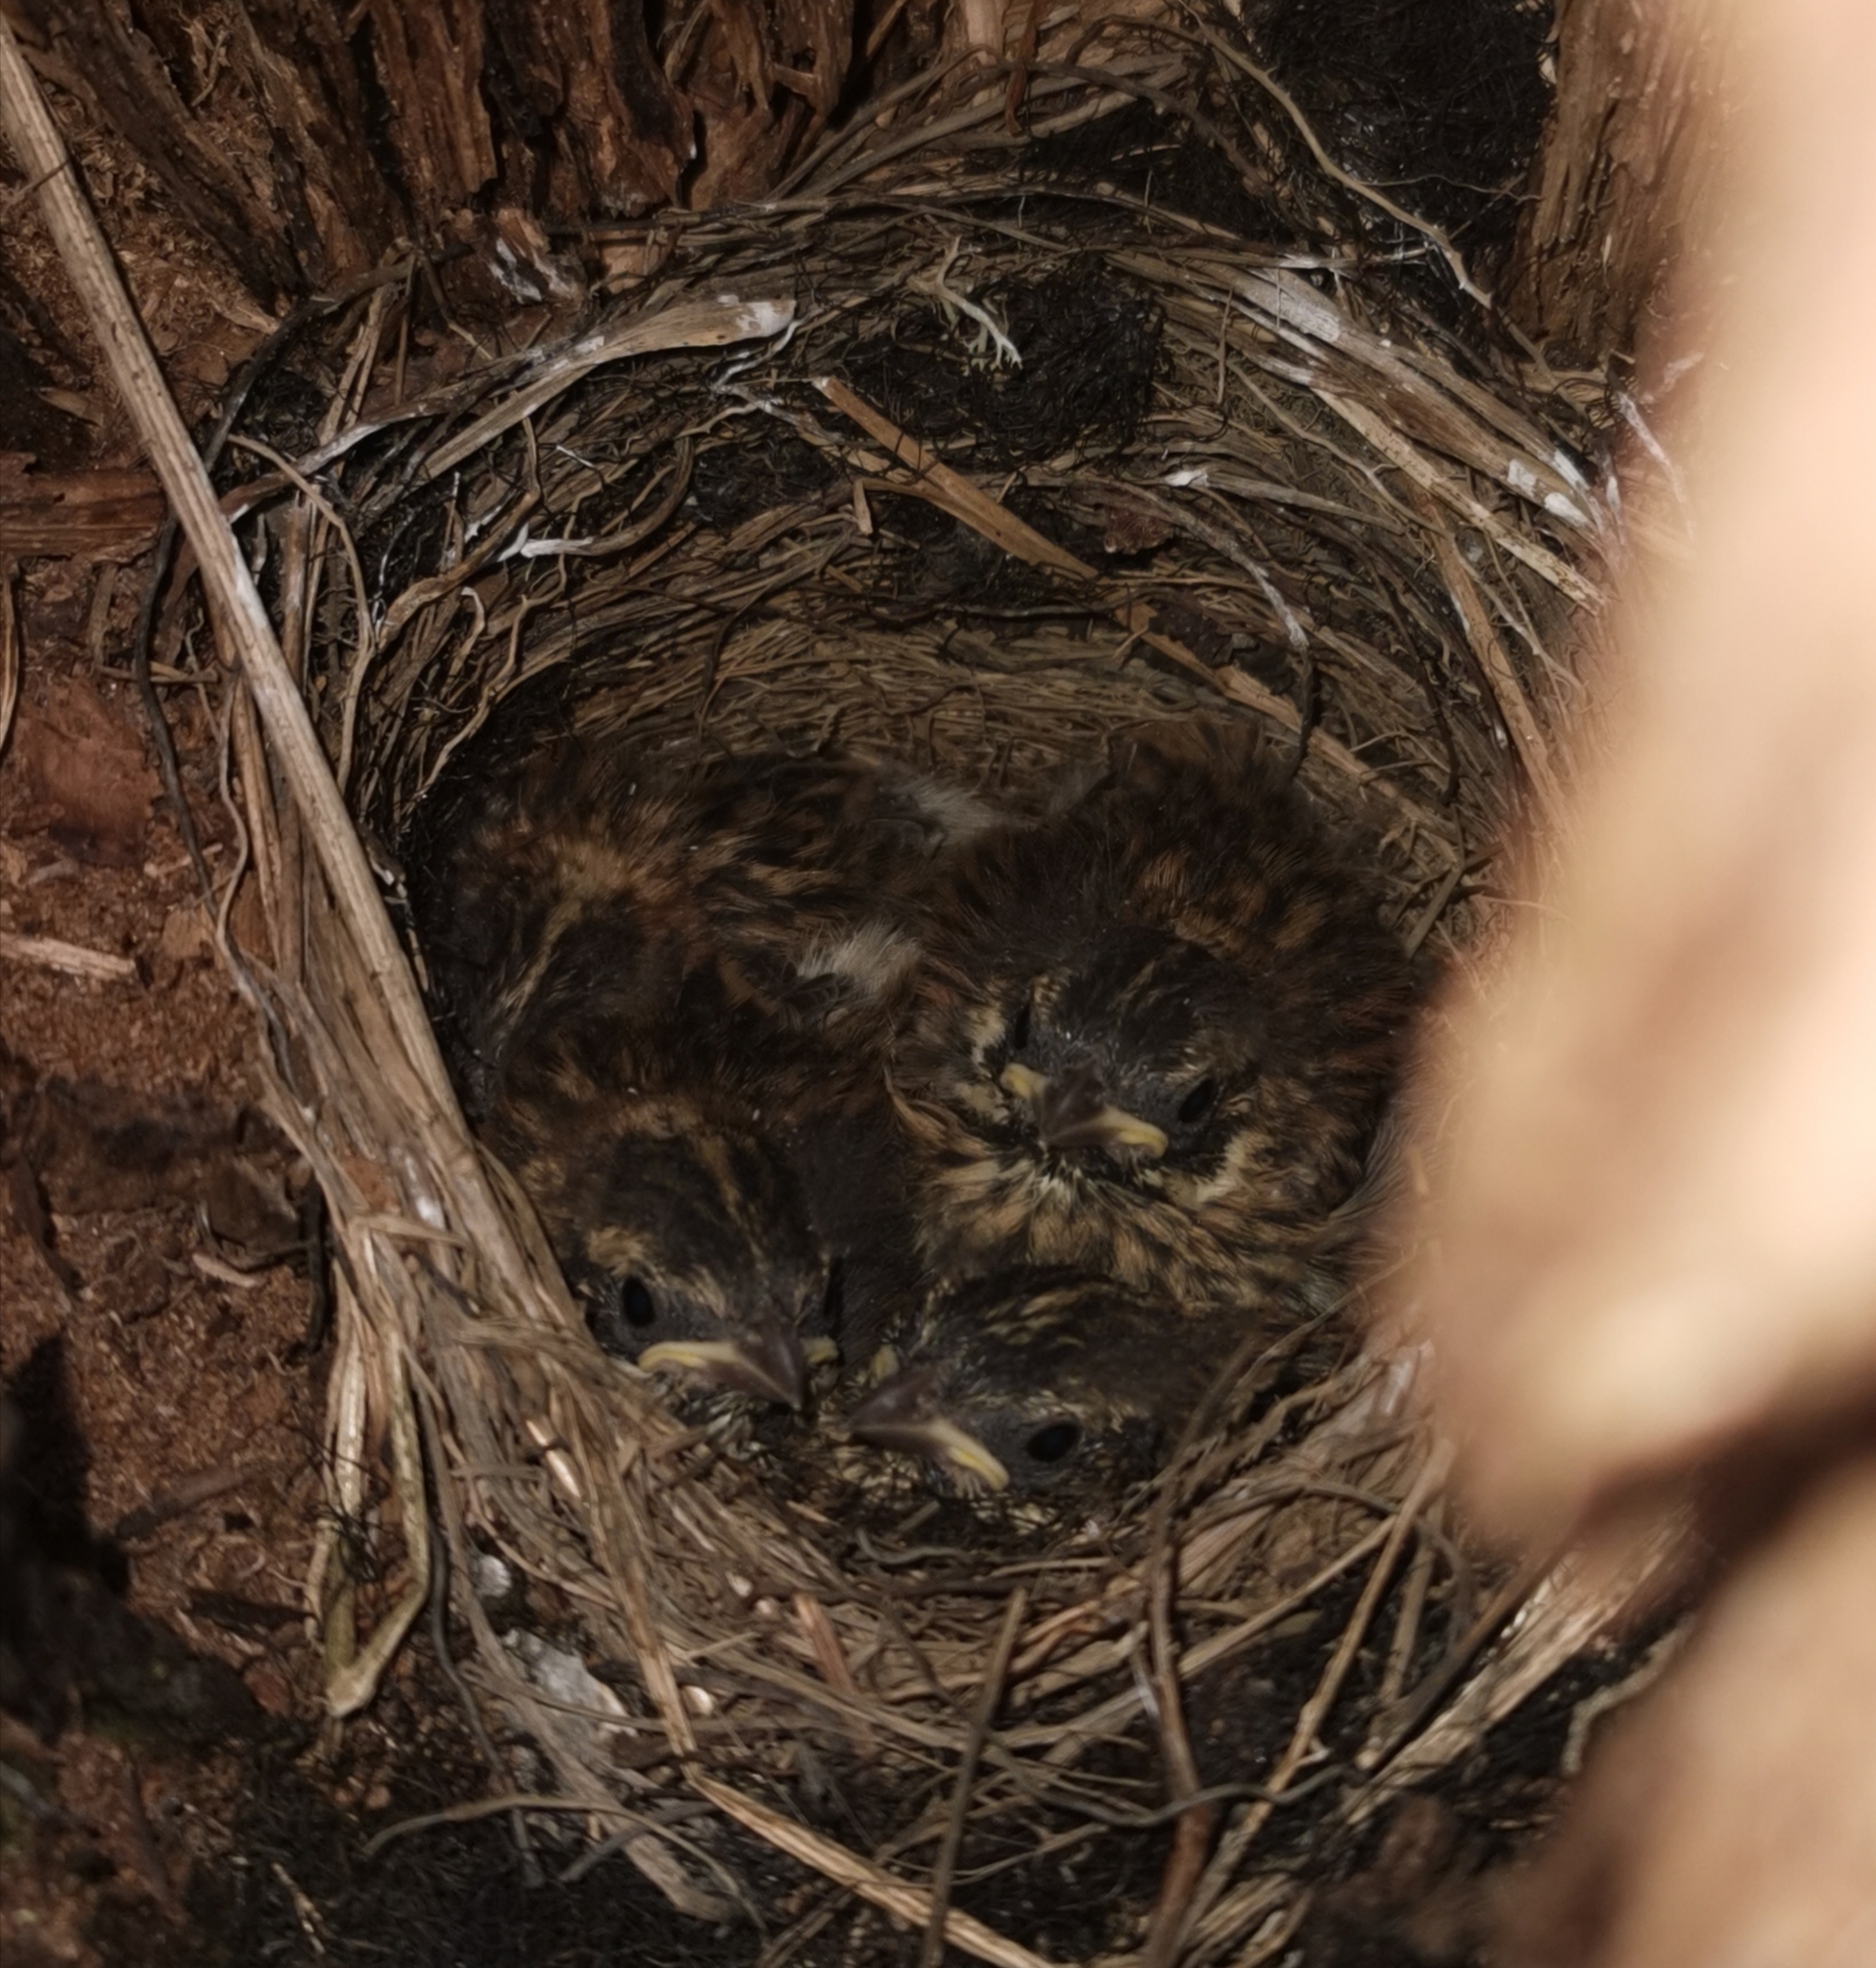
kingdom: Animalia
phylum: Chordata
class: Aves
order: Passeriformes
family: Emberizidae
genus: Emberiza
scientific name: Emberiza rustica
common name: Rustic bunting
